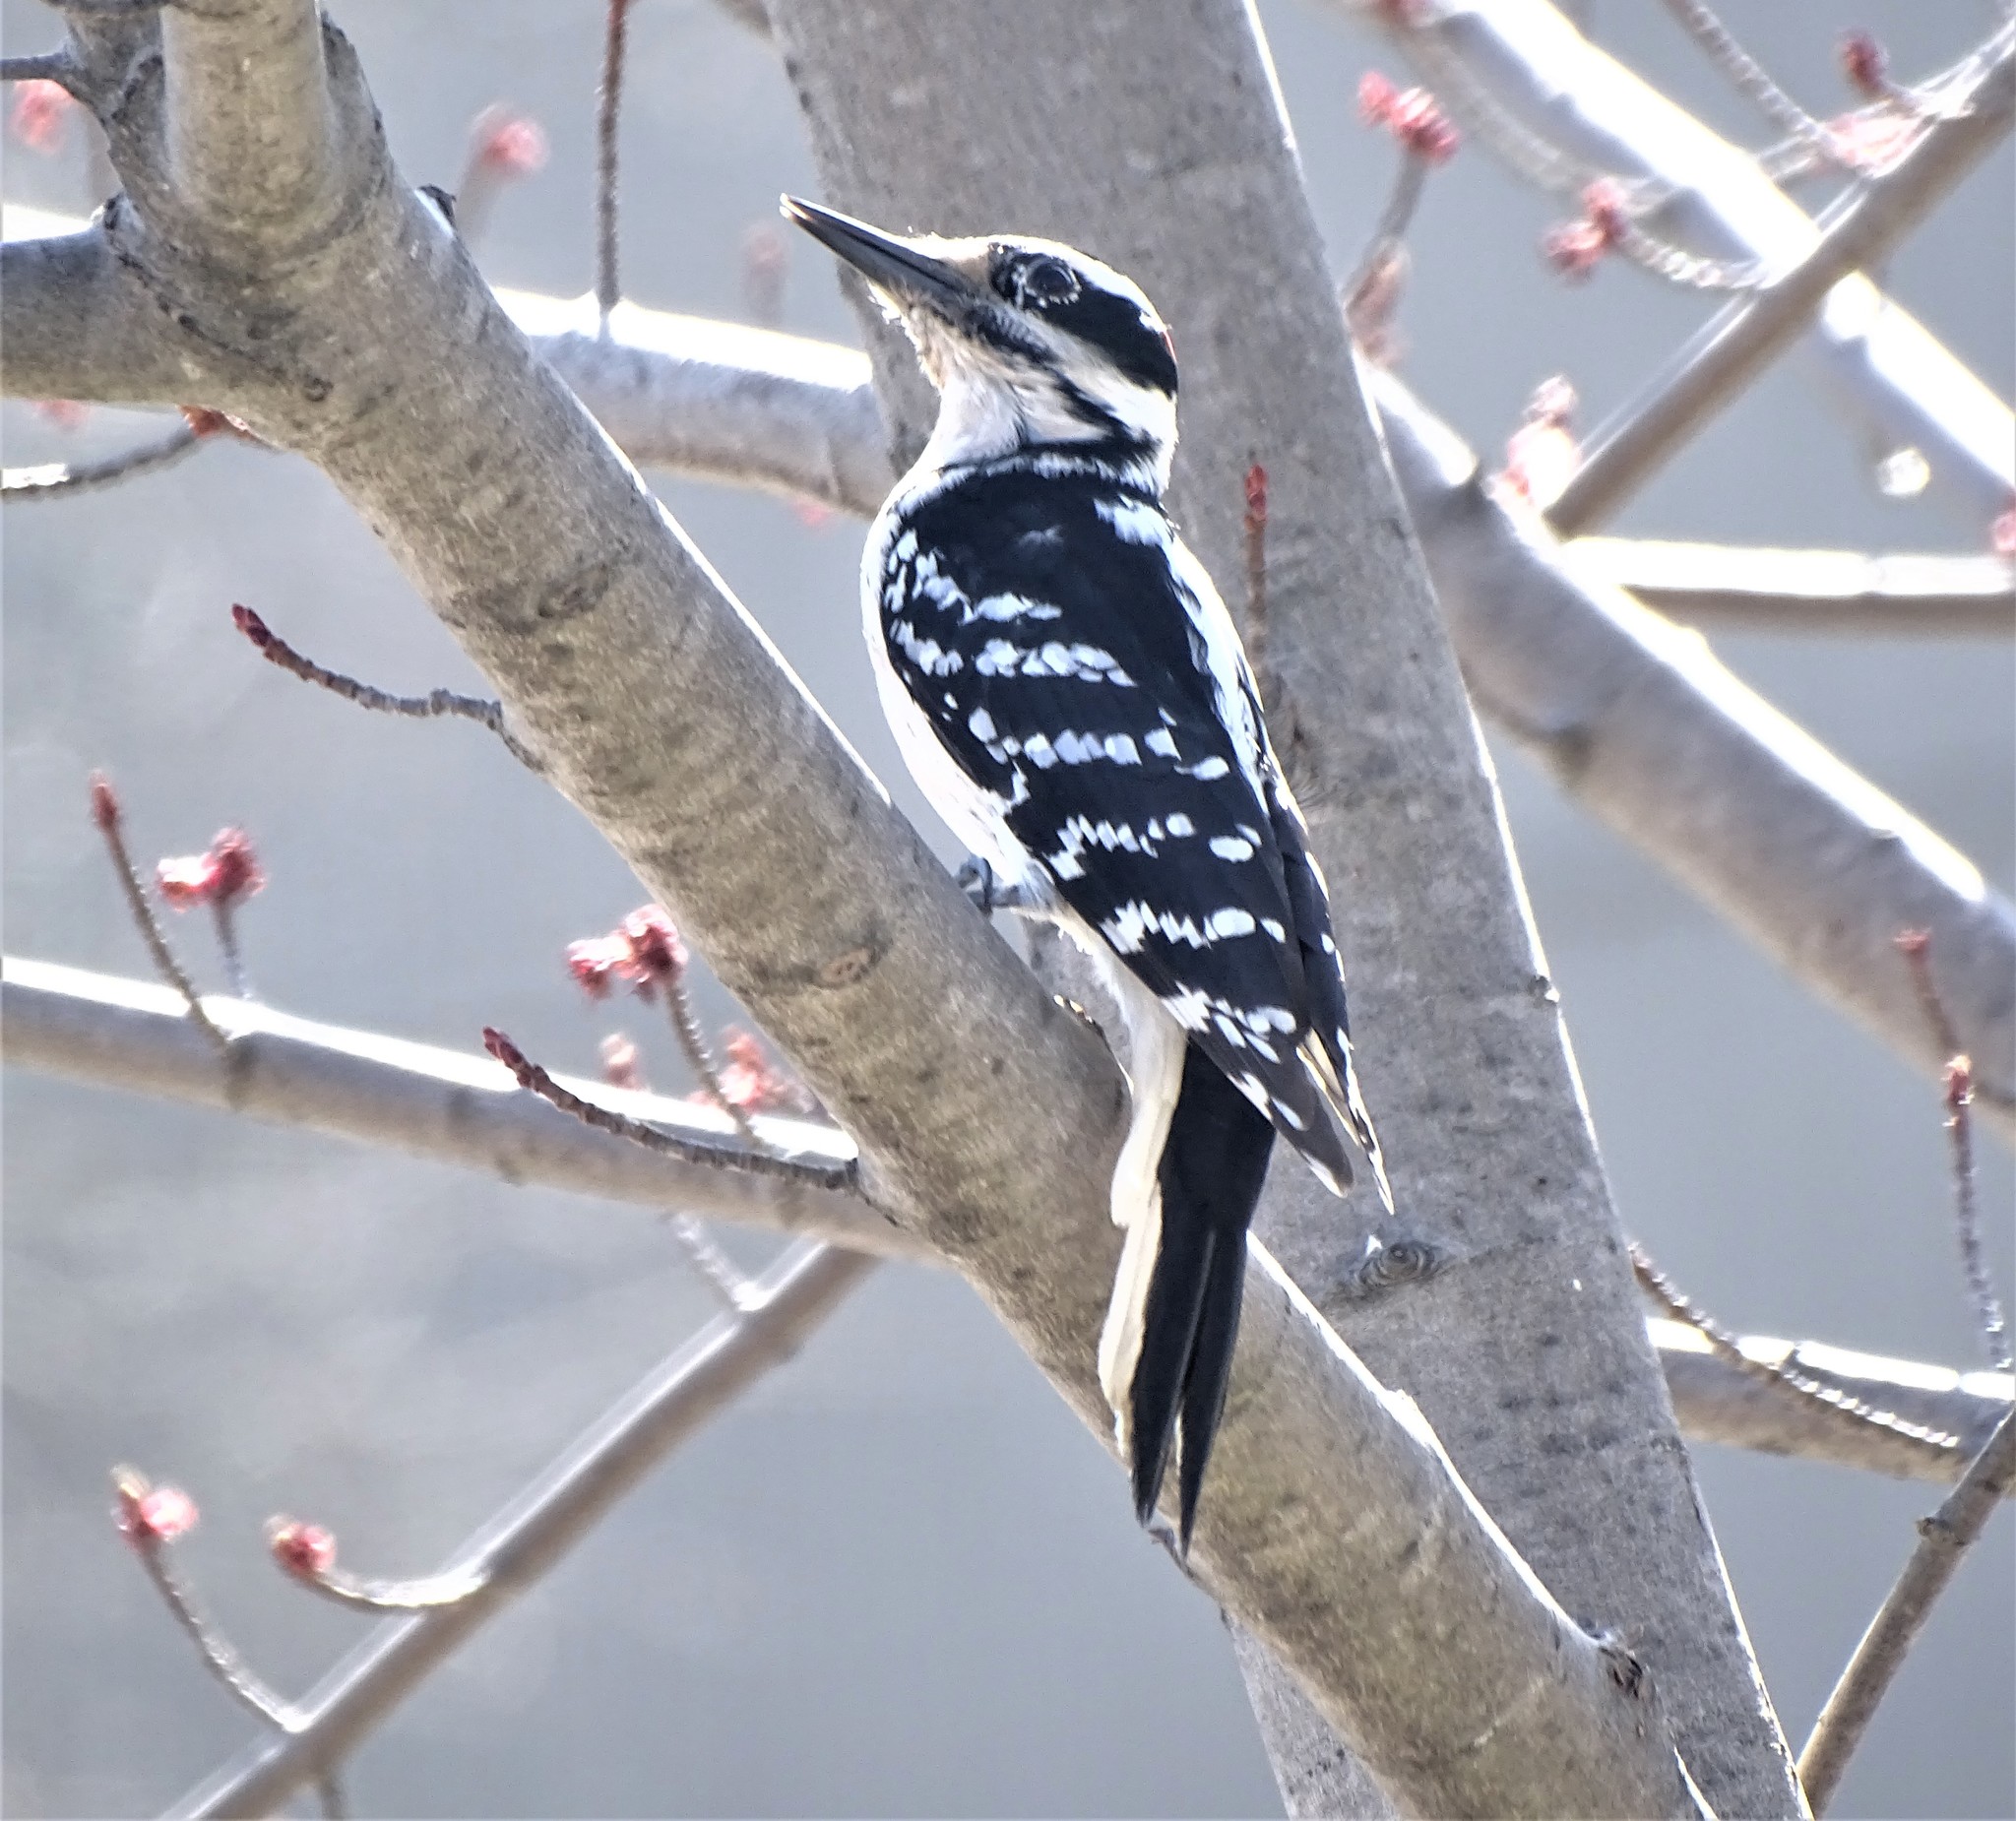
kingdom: Animalia
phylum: Chordata
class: Aves
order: Piciformes
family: Picidae
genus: Leuconotopicus
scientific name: Leuconotopicus villosus
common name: Hairy woodpecker
